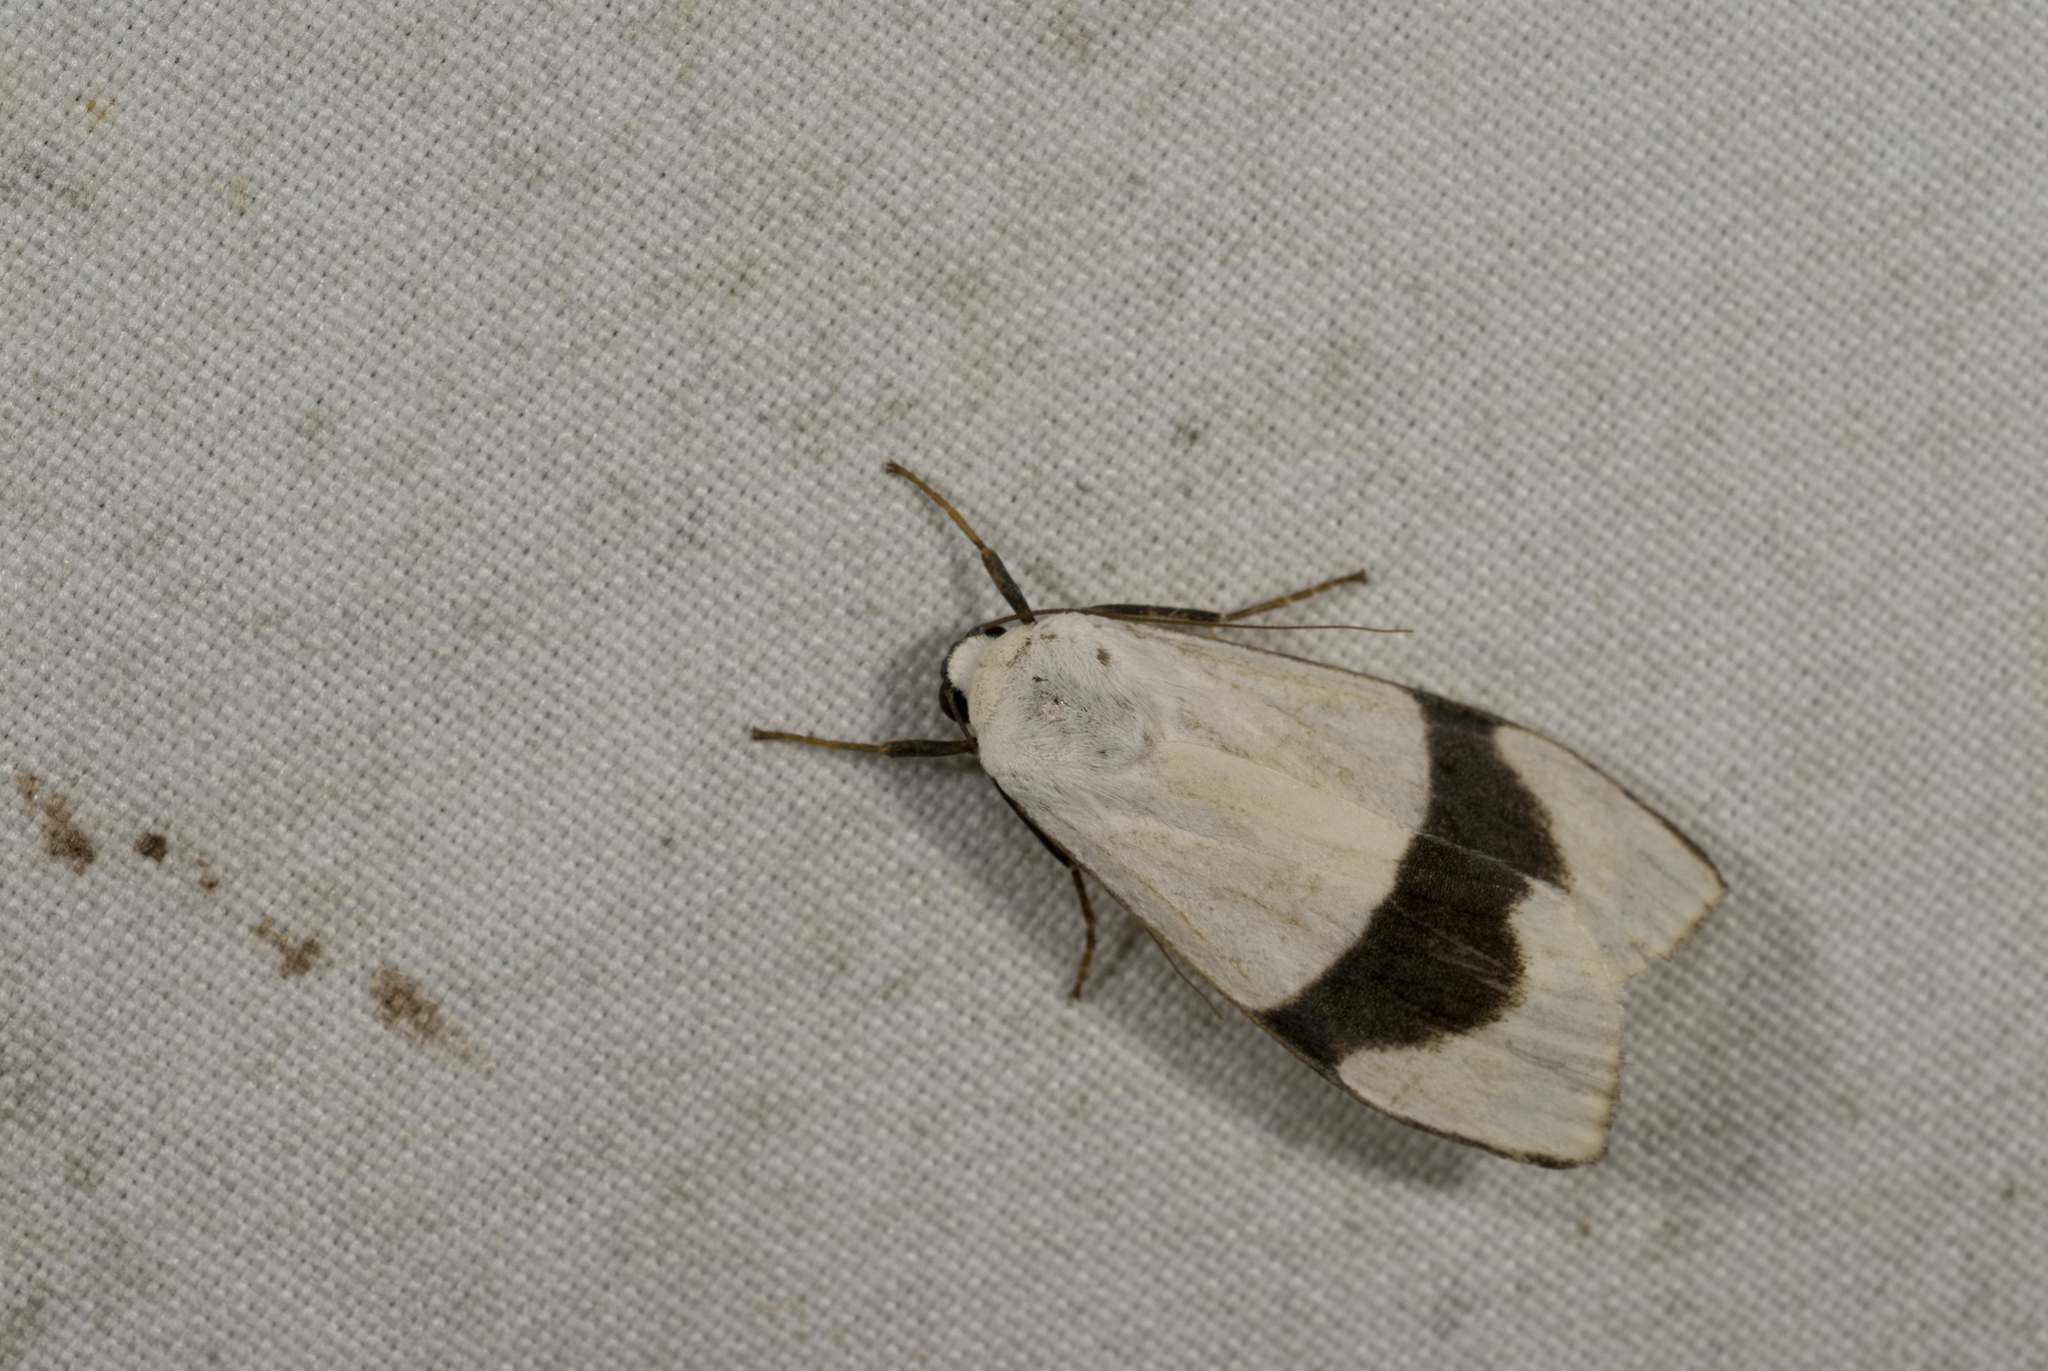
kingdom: Animalia
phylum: Arthropoda
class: Insecta
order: Lepidoptera
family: Erebidae
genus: Vamuna
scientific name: Vamuna alboluteola
